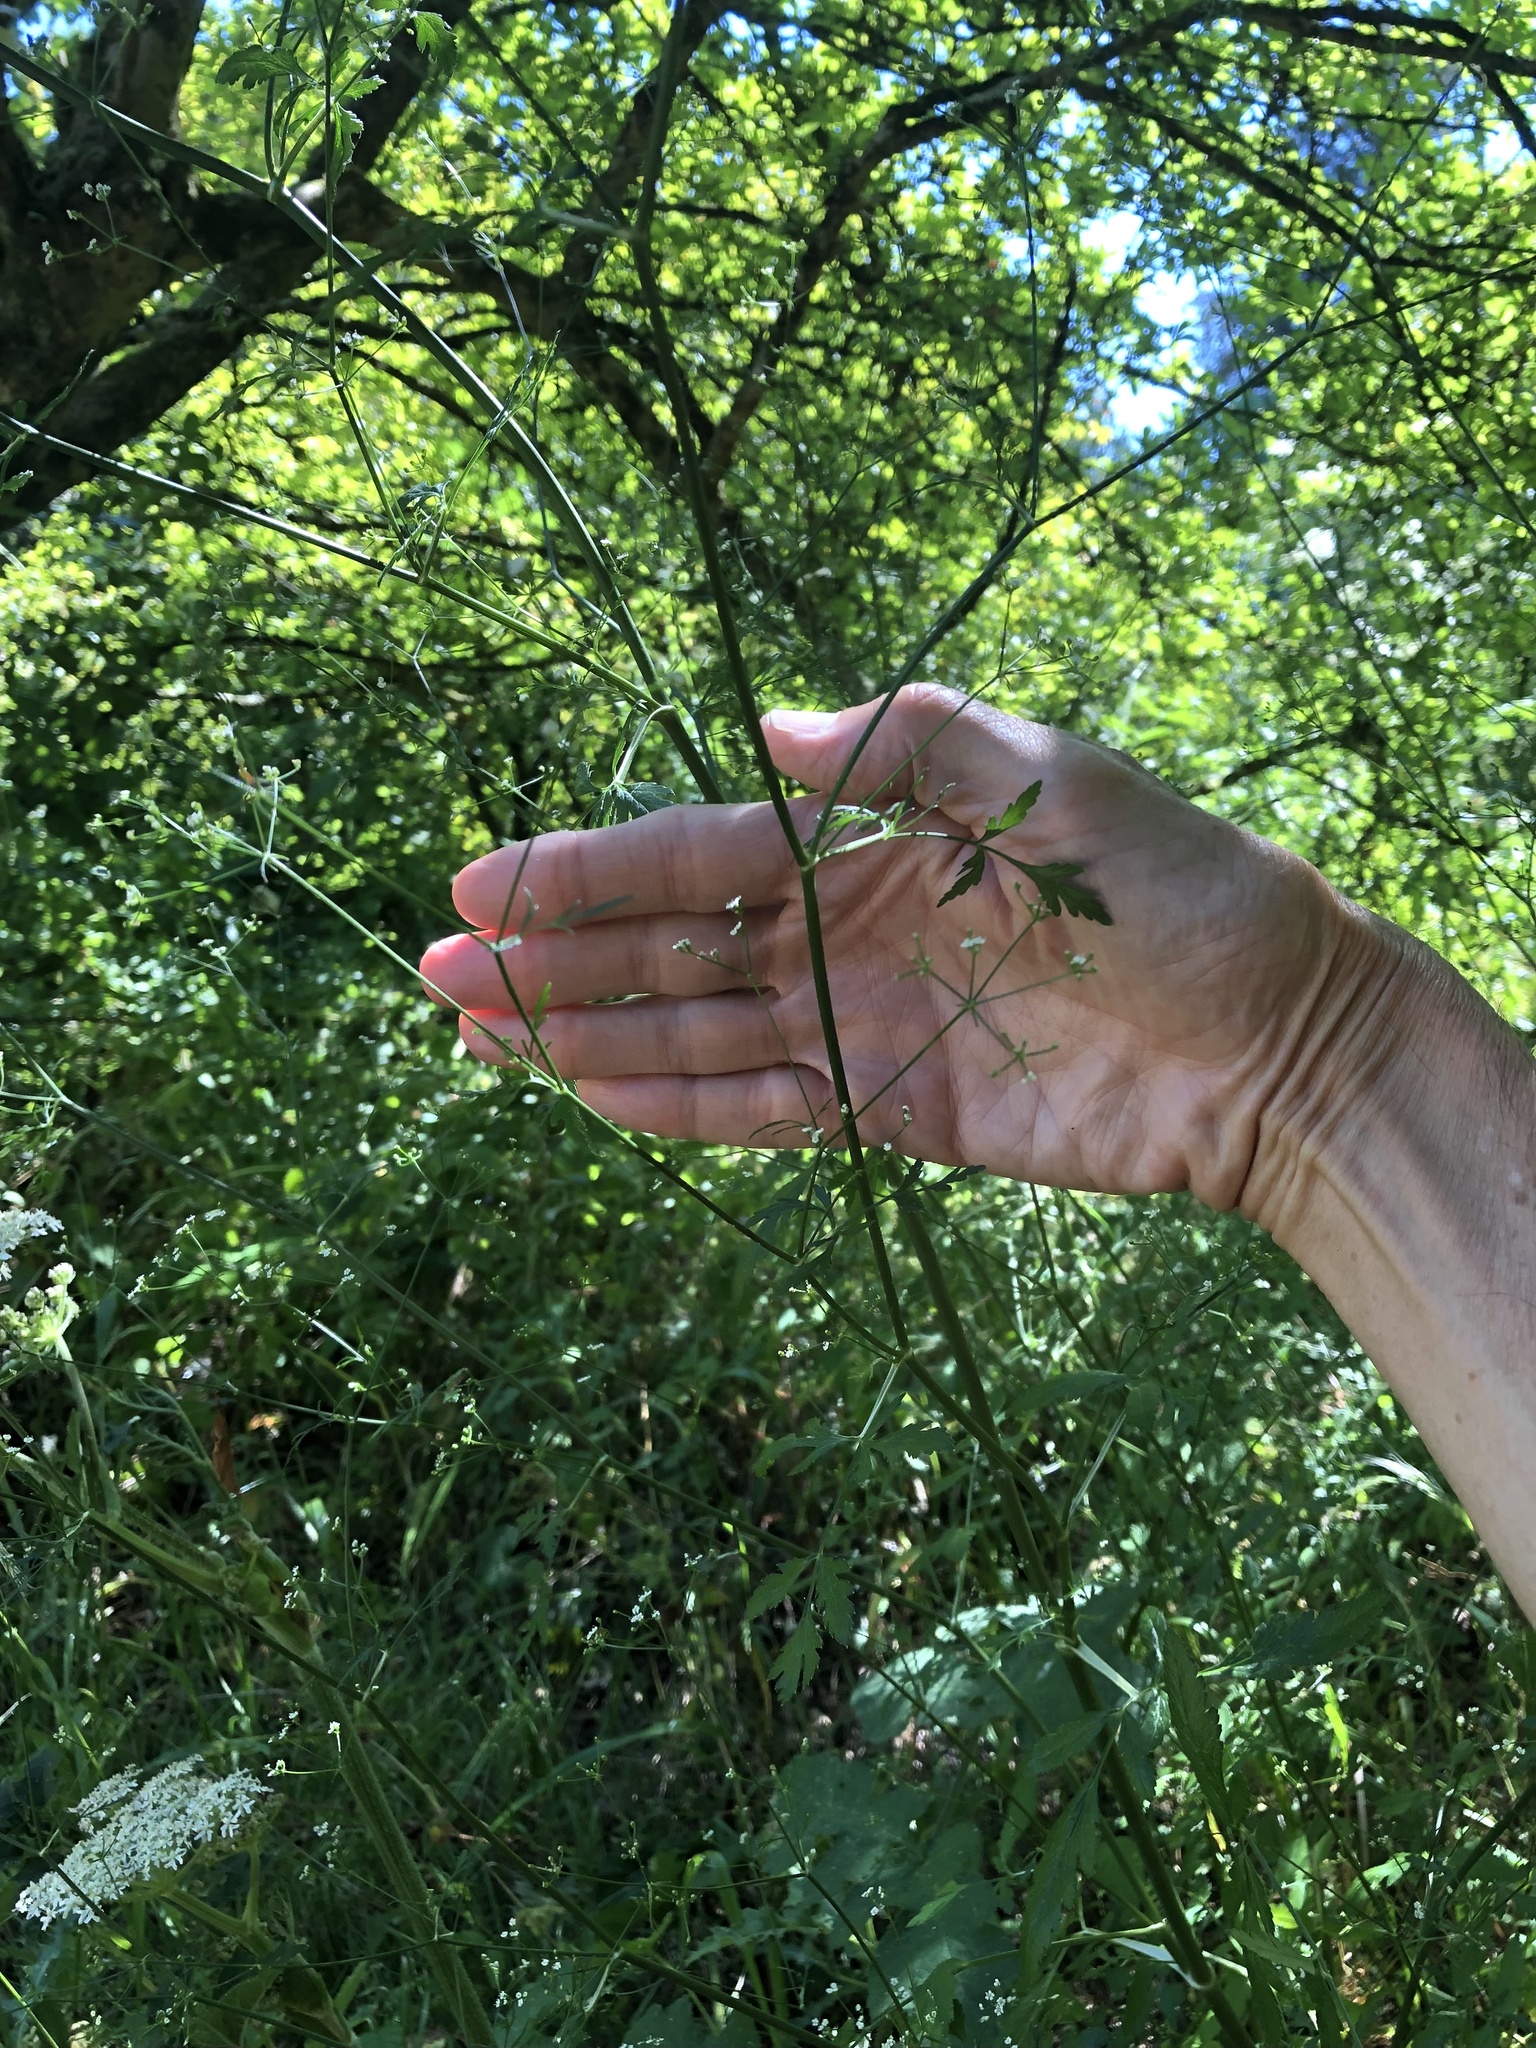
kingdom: Plantae
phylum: Tracheophyta
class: Magnoliopsida
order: Apiales
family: Apiaceae
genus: Sison
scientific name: Sison amomum
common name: Stone-parsley
